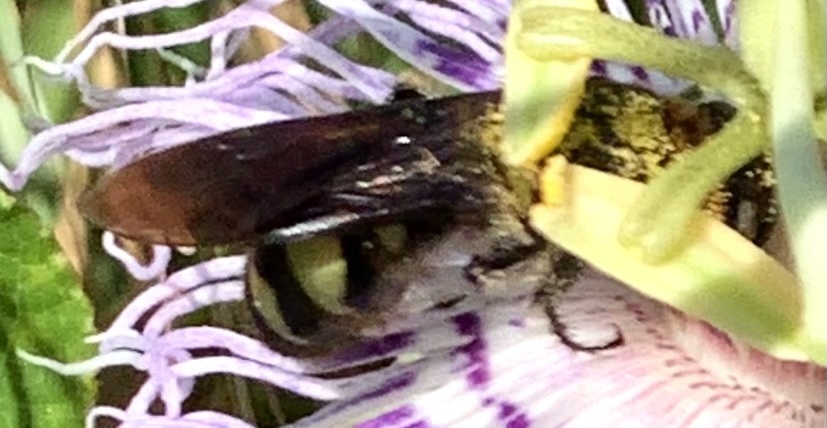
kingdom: Animalia
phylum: Arthropoda
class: Insecta
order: Hymenoptera
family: Scoliidae
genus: Dielis
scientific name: Dielis
